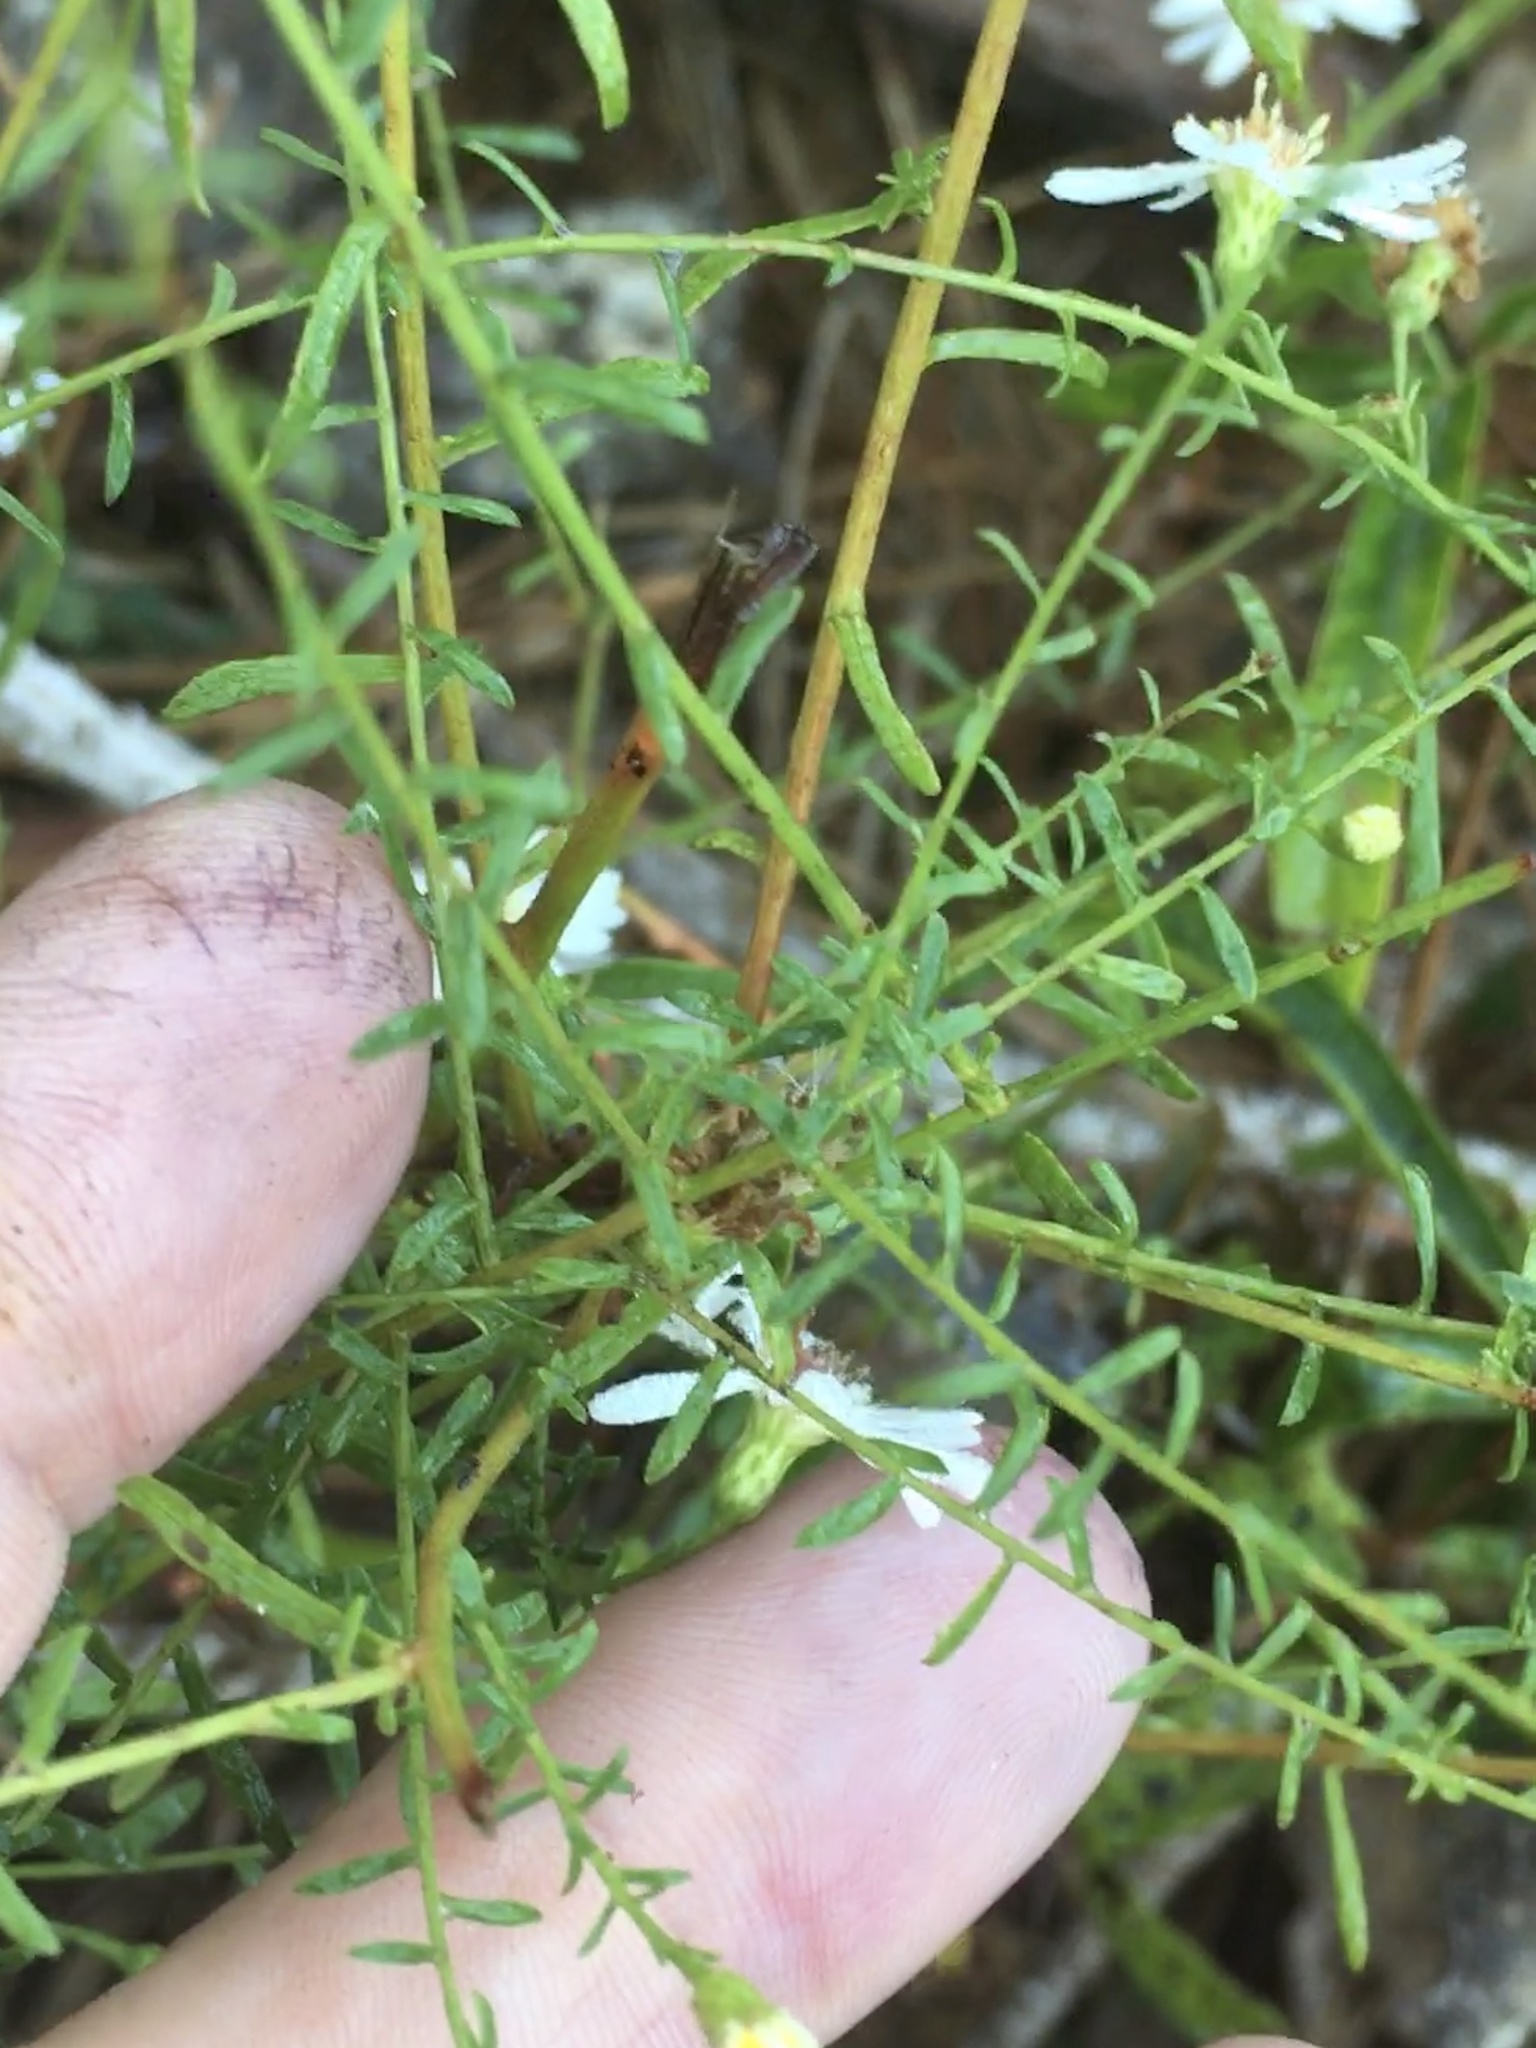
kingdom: Plantae
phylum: Tracheophyta
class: Magnoliopsida
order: Asterales
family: Asteraceae
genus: Symphyotrichum
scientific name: Symphyotrichum dumosum
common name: Bushy aster
